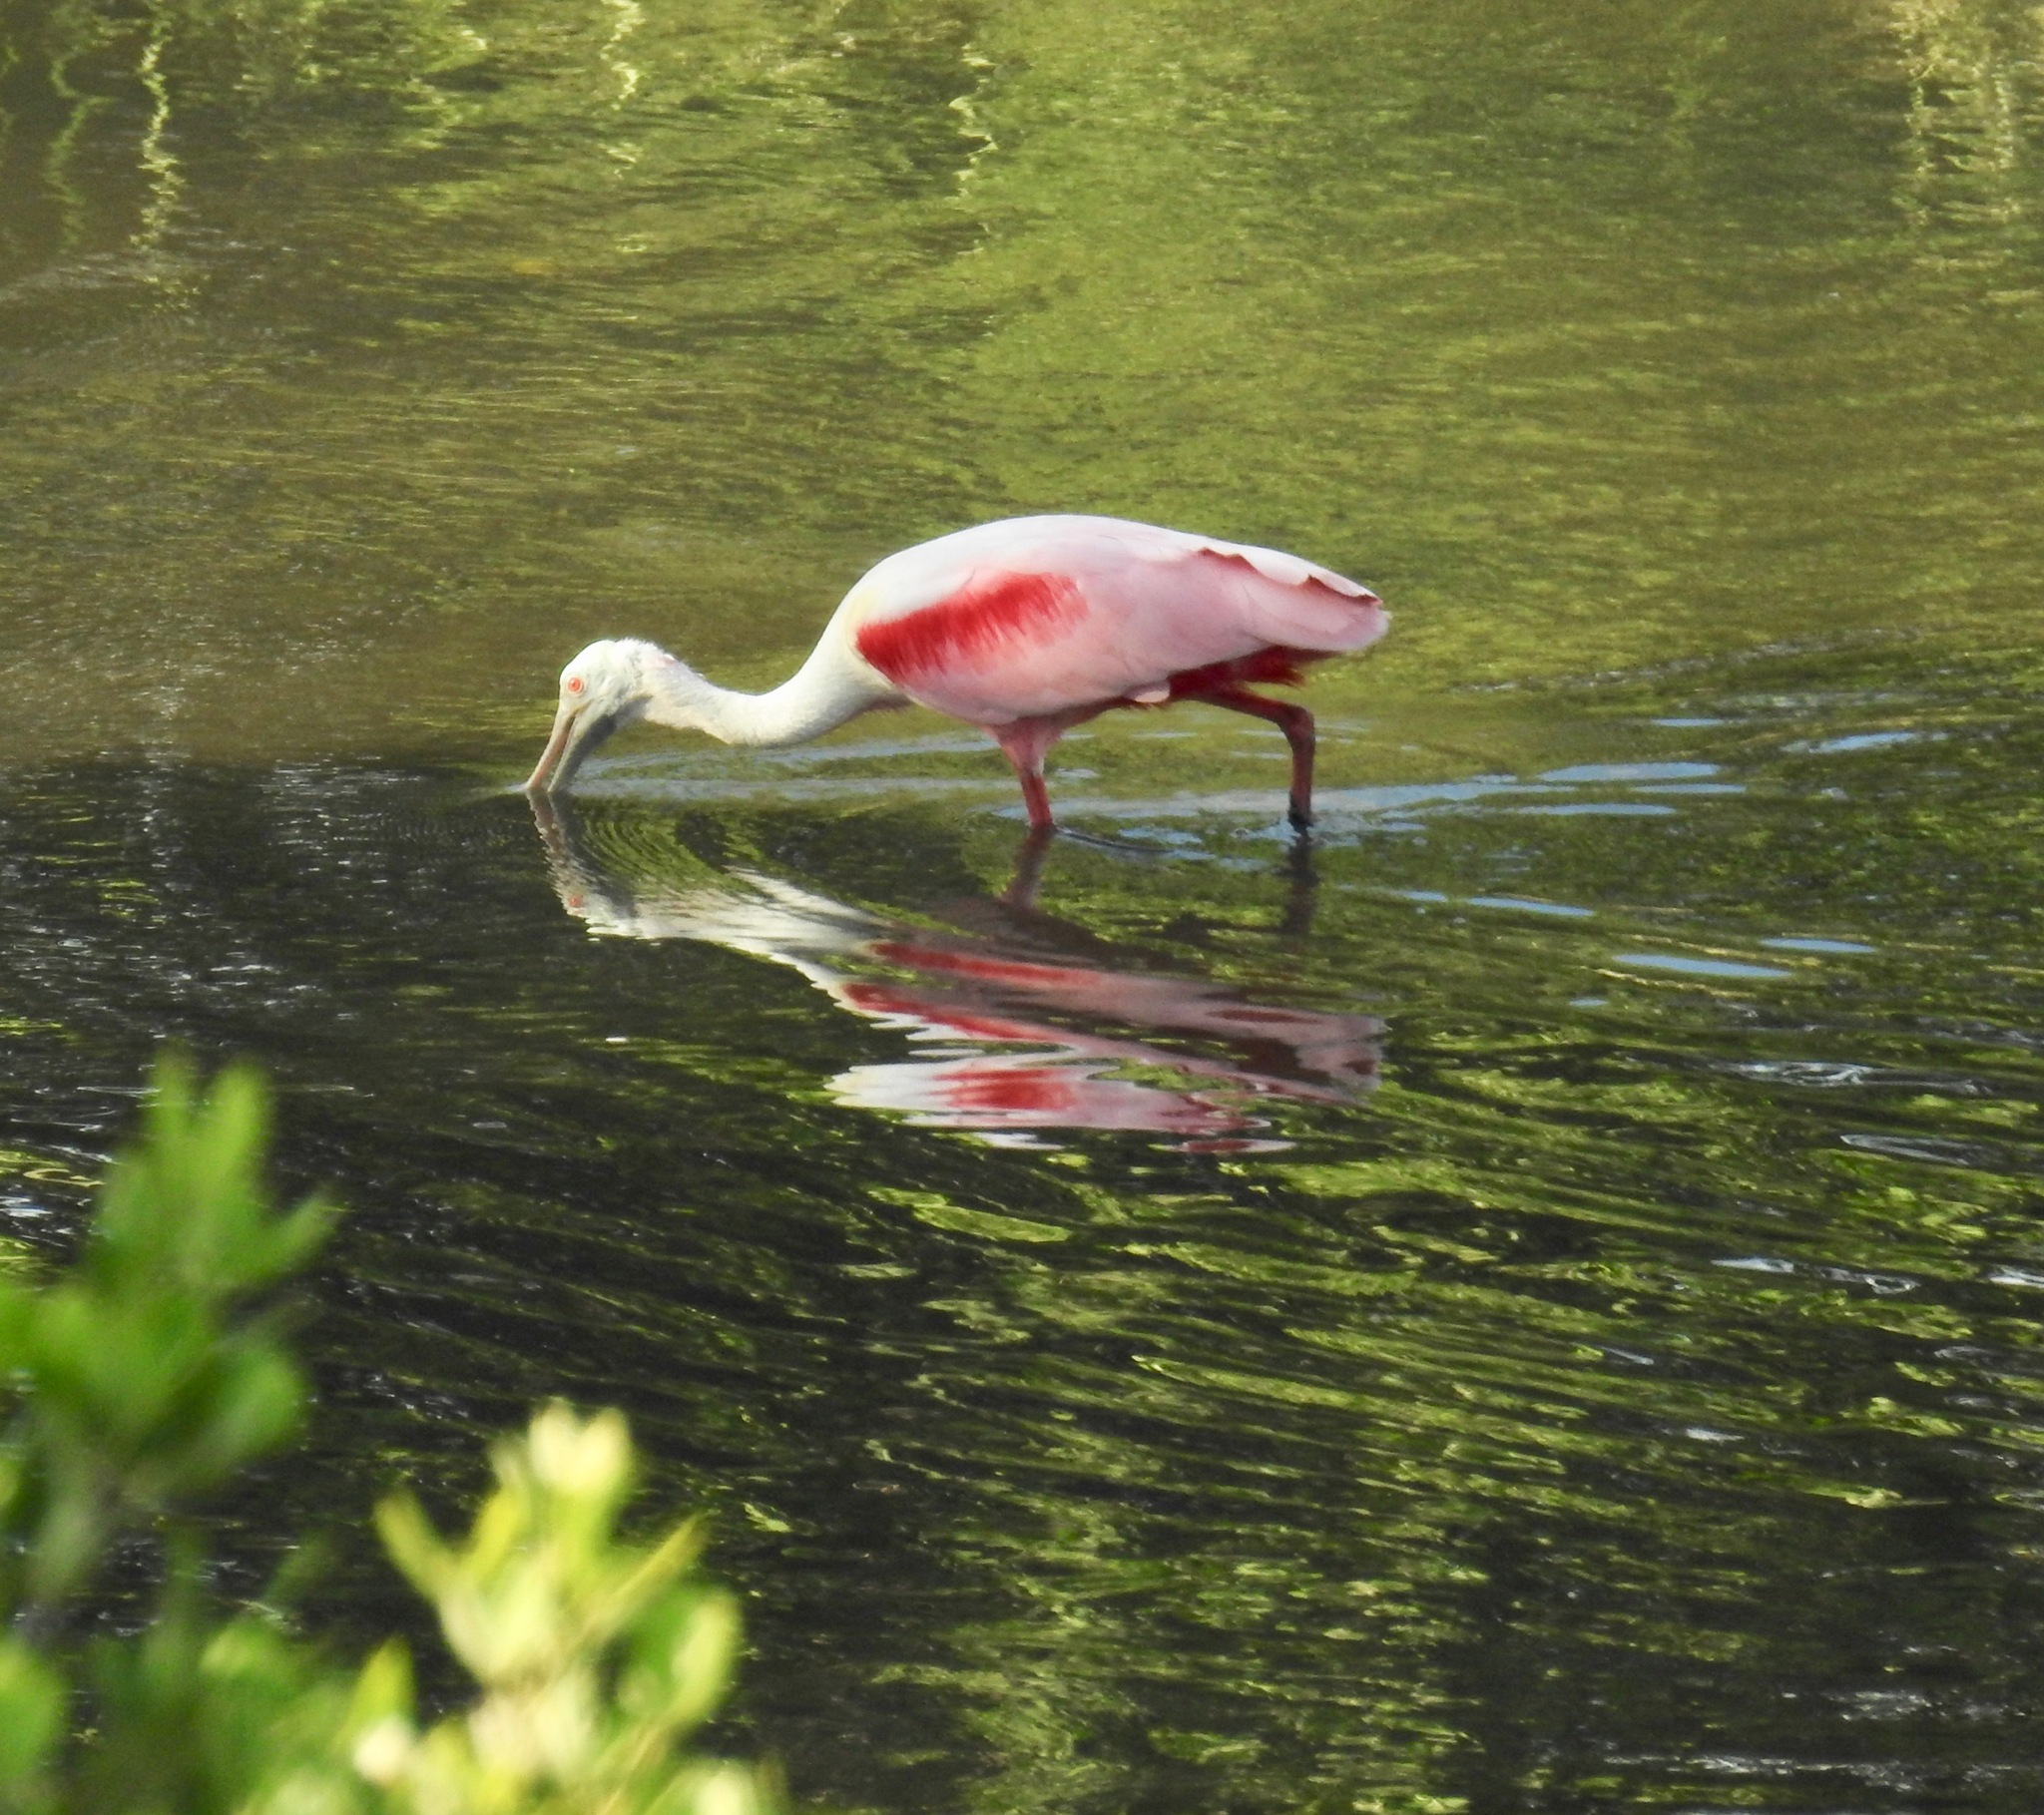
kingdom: Animalia
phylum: Chordata
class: Aves
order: Pelecaniformes
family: Threskiornithidae
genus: Platalea
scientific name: Platalea ajaja
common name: Roseate spoonbill
